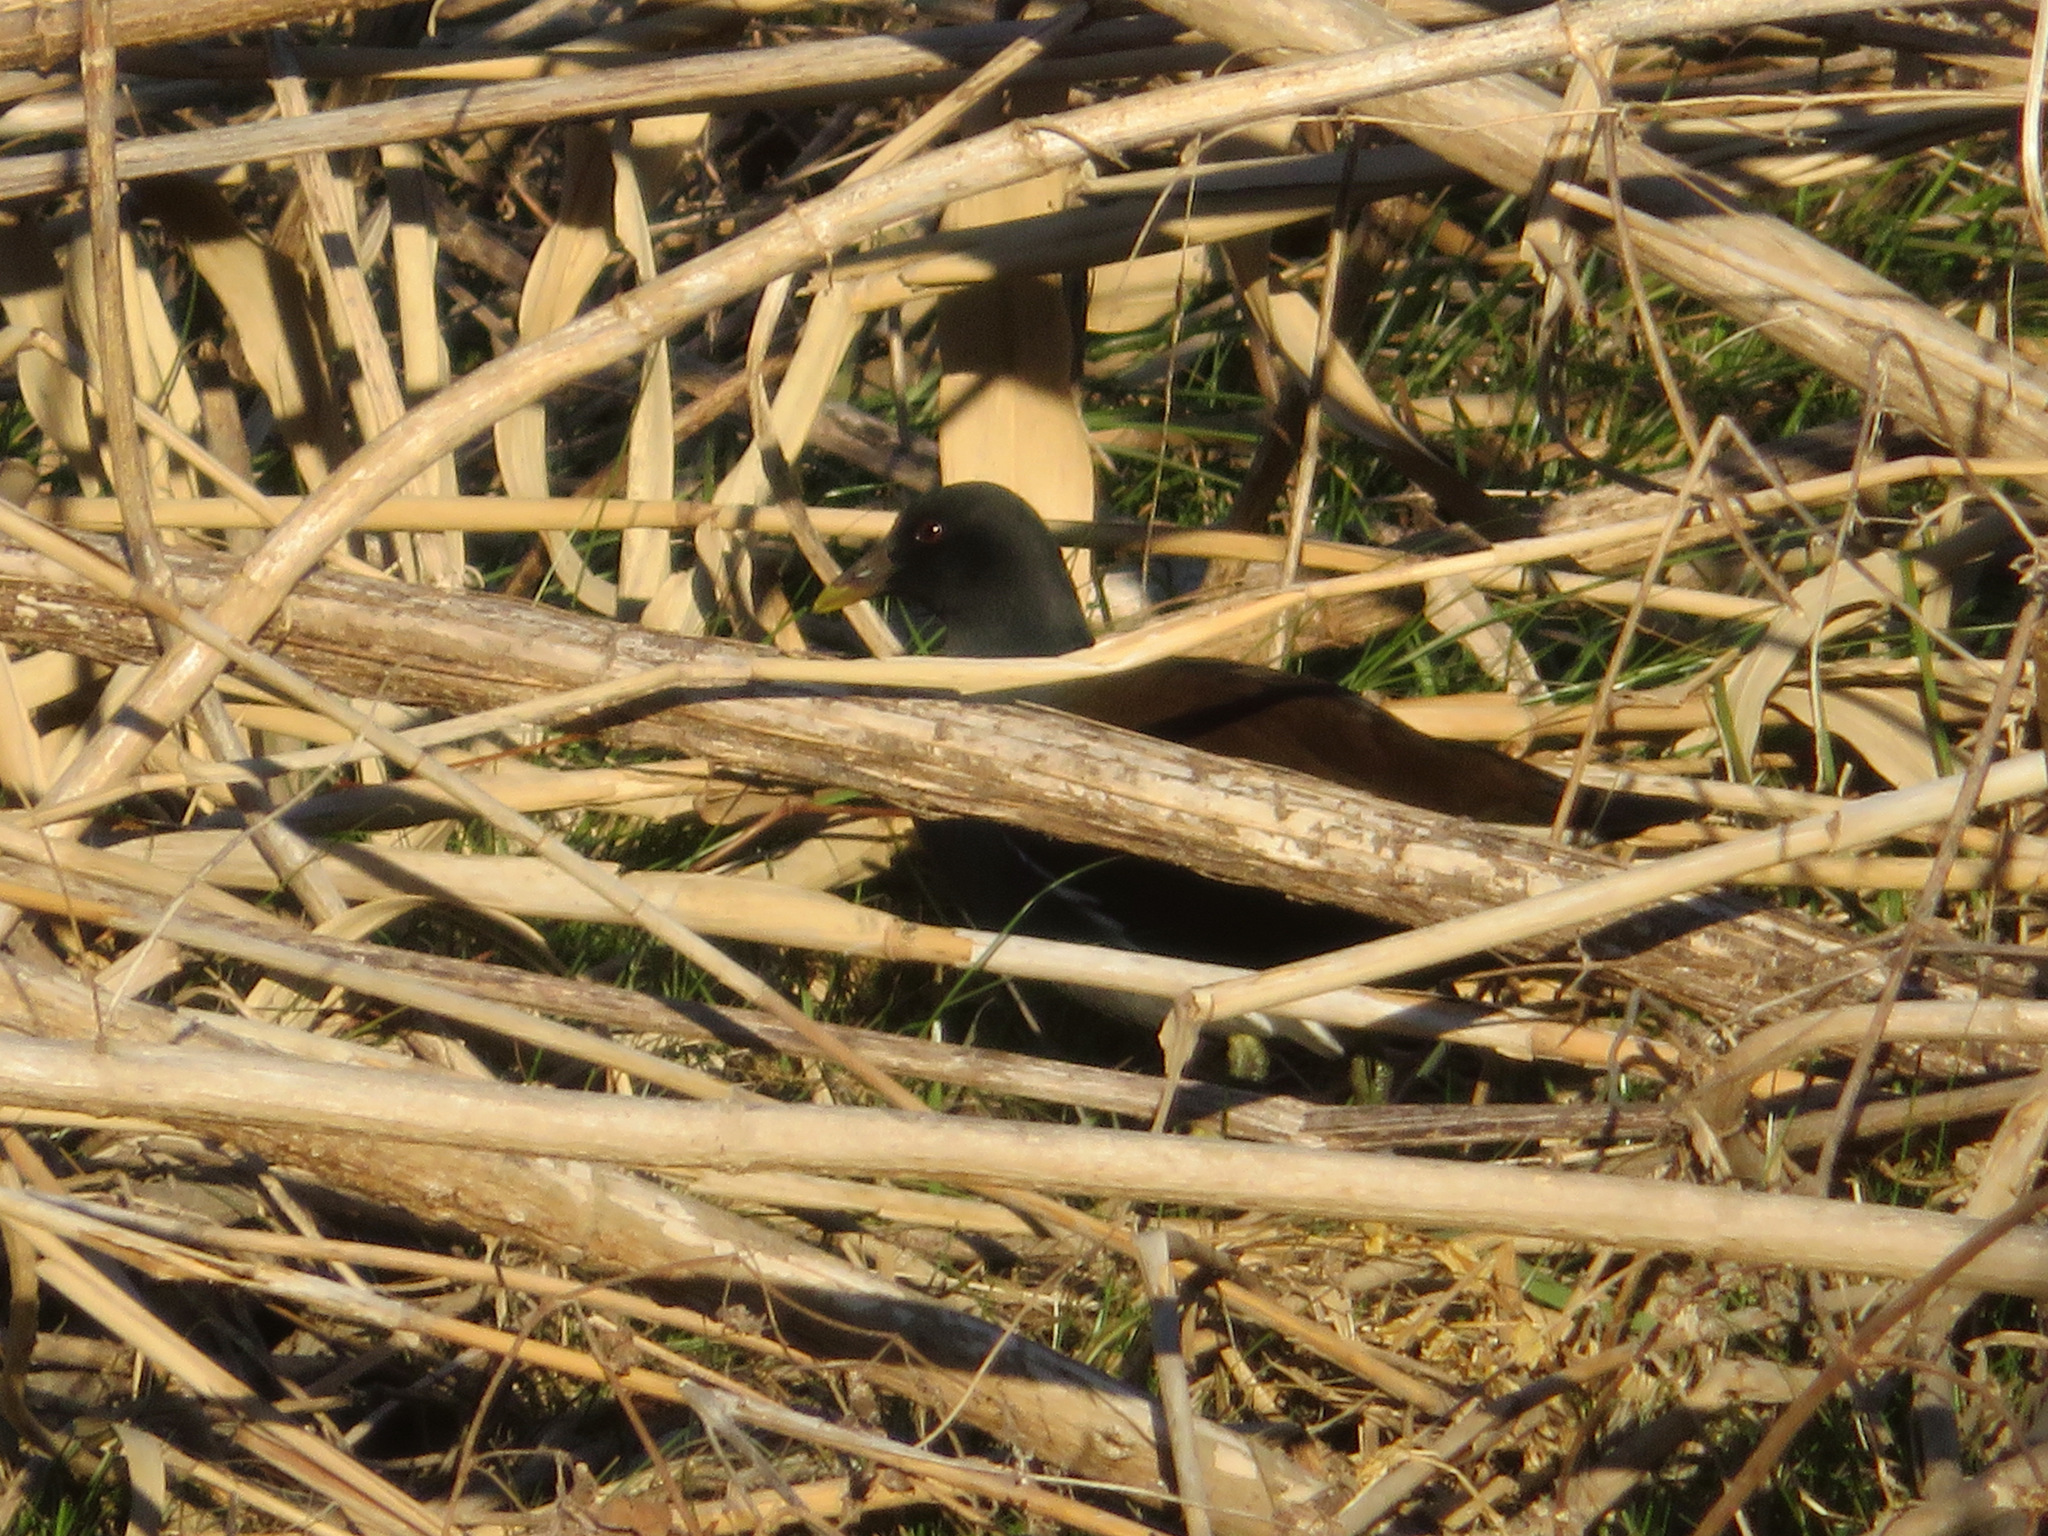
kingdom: Animalia
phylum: Chordata
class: Aves
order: Gruiformes
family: Rallidae
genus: Gallinula
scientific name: Gallinula chloropus
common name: Common moorhen
